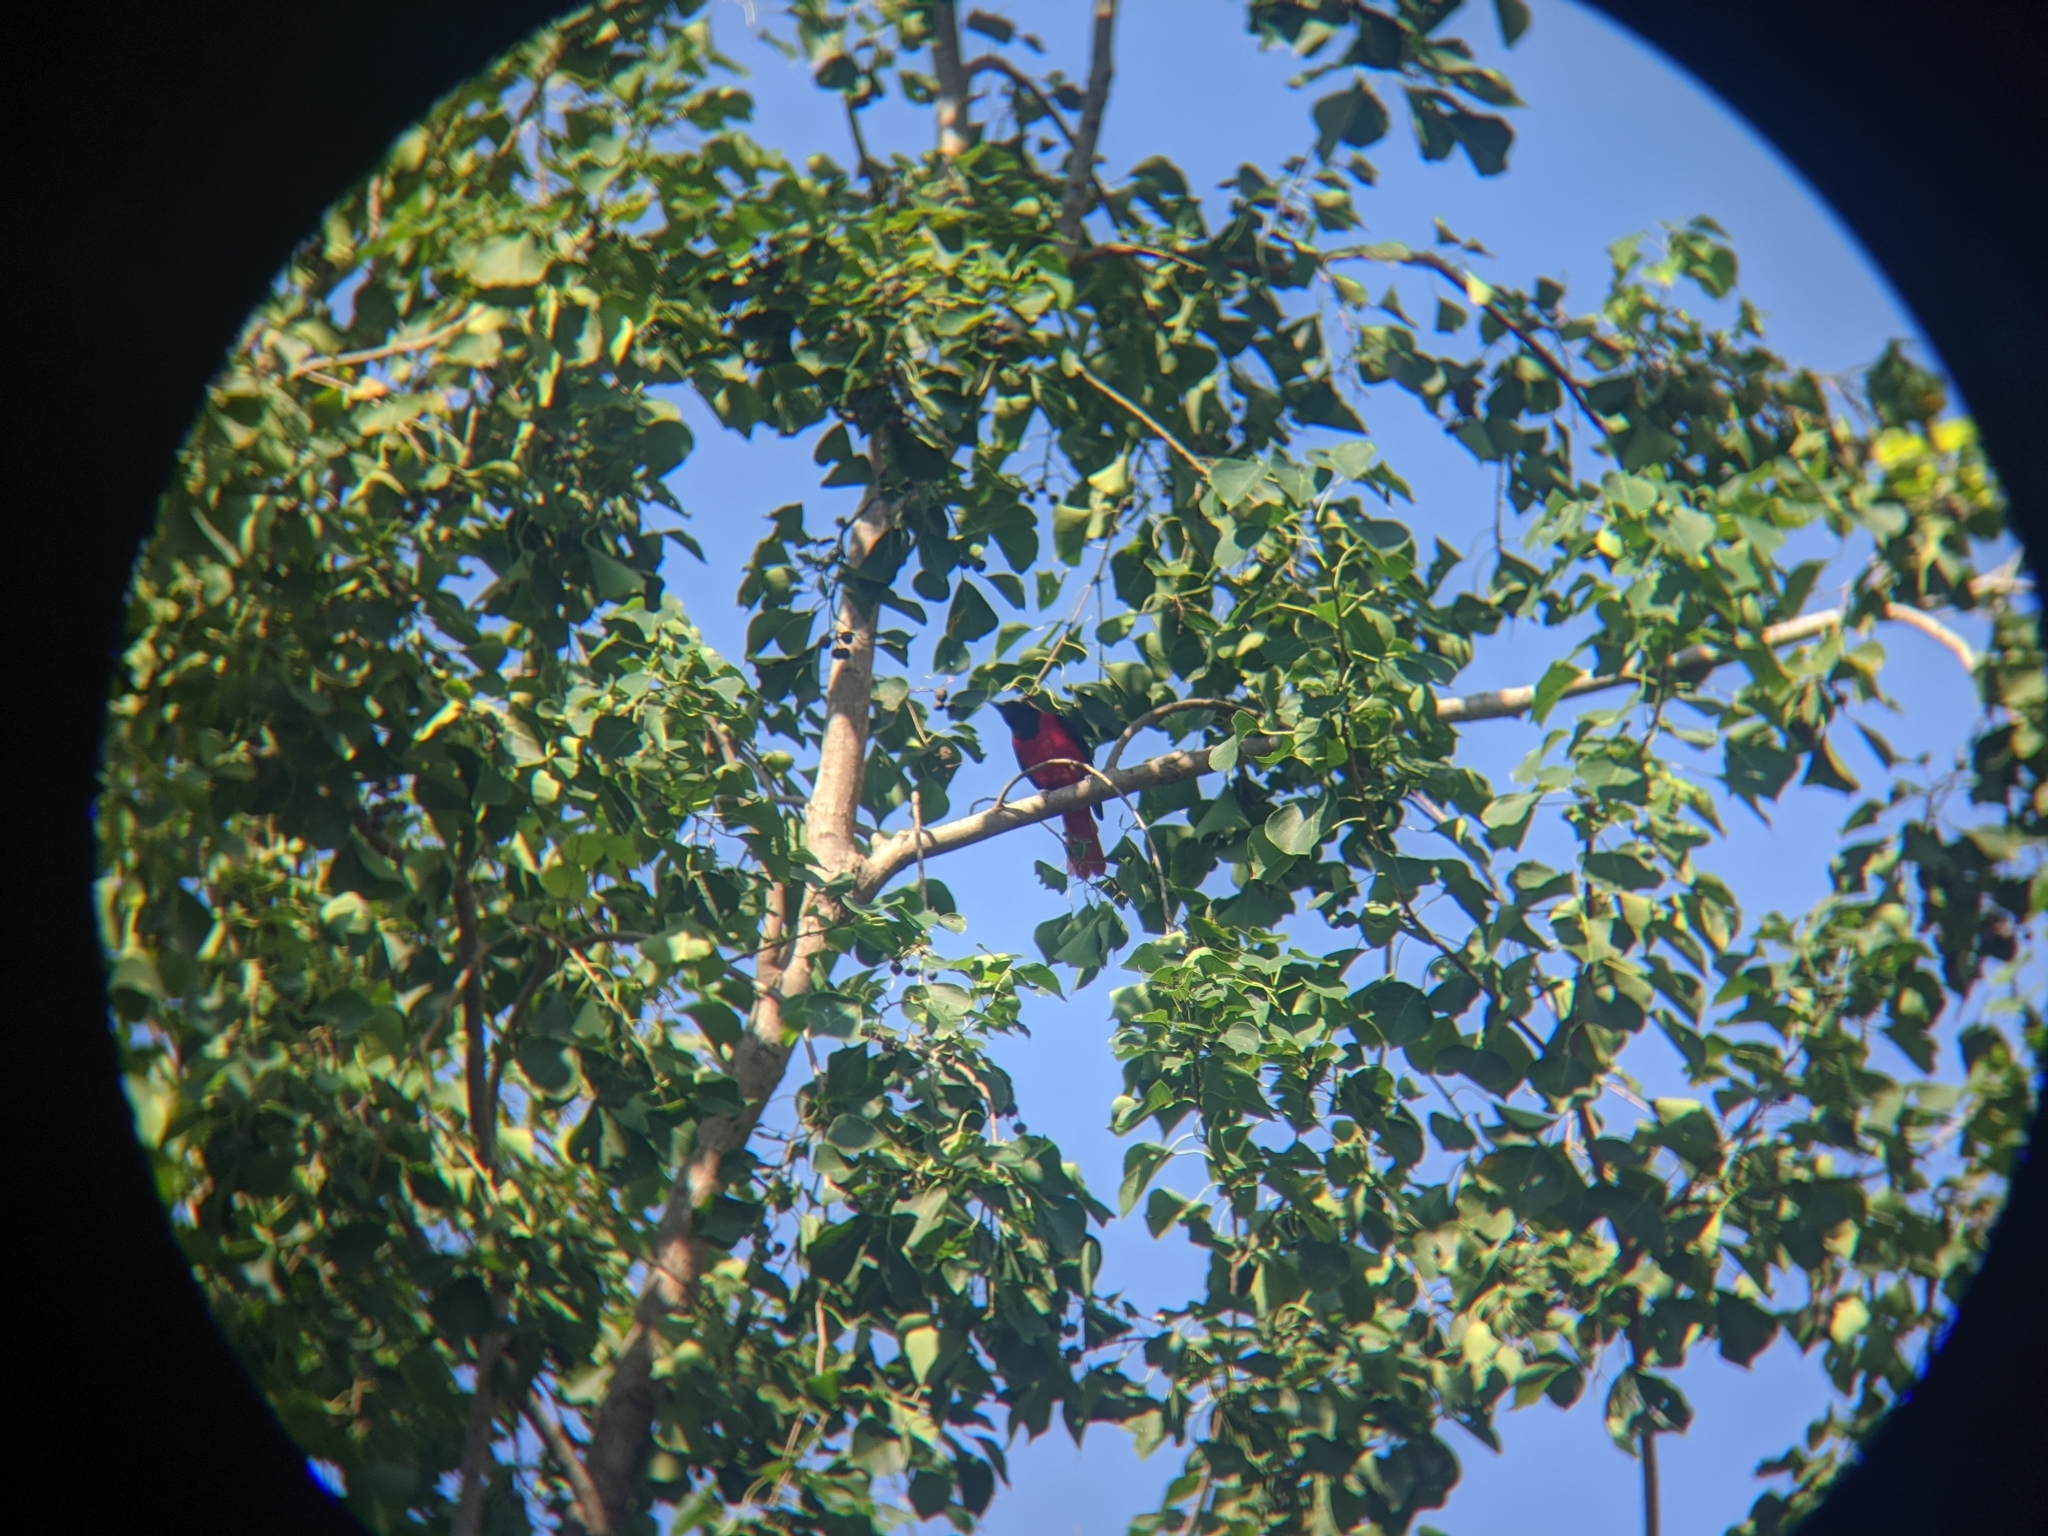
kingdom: Animalia
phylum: Chordata
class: Aves
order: Passeriformes
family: Oriolidae
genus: Oriolus
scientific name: Oriolus traillii
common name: Maroon oriole
